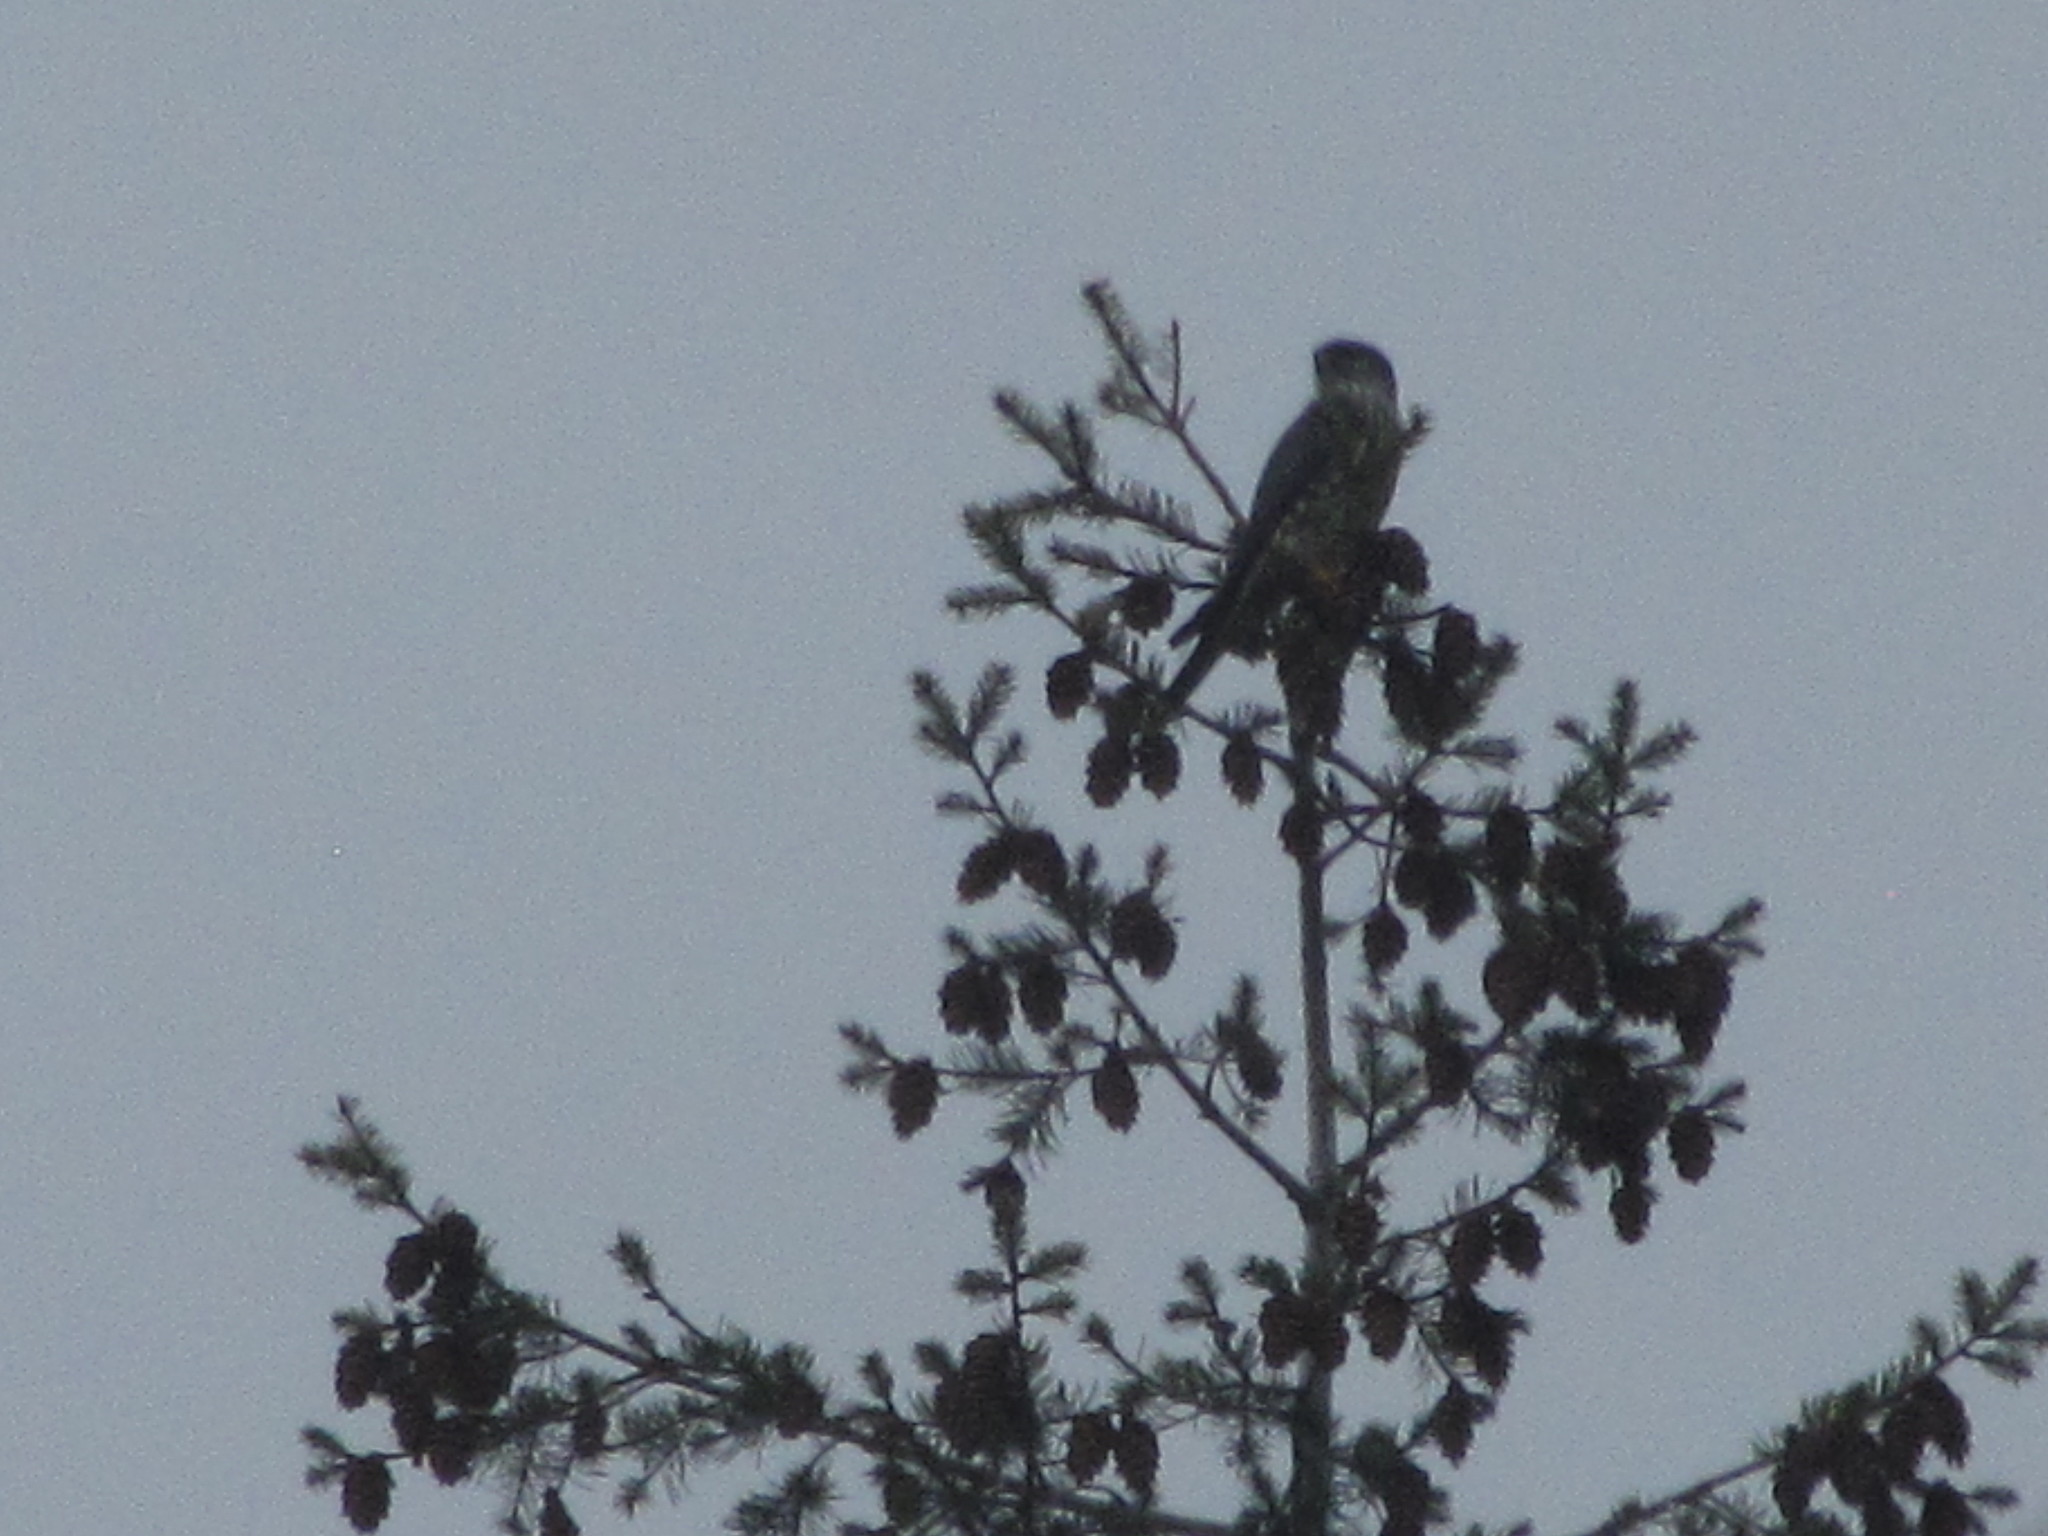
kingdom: Animalia
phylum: Chordata
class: Aves
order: Falconiformes
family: Falconidae
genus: Falco
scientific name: Falco columbarius
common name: Merlin
